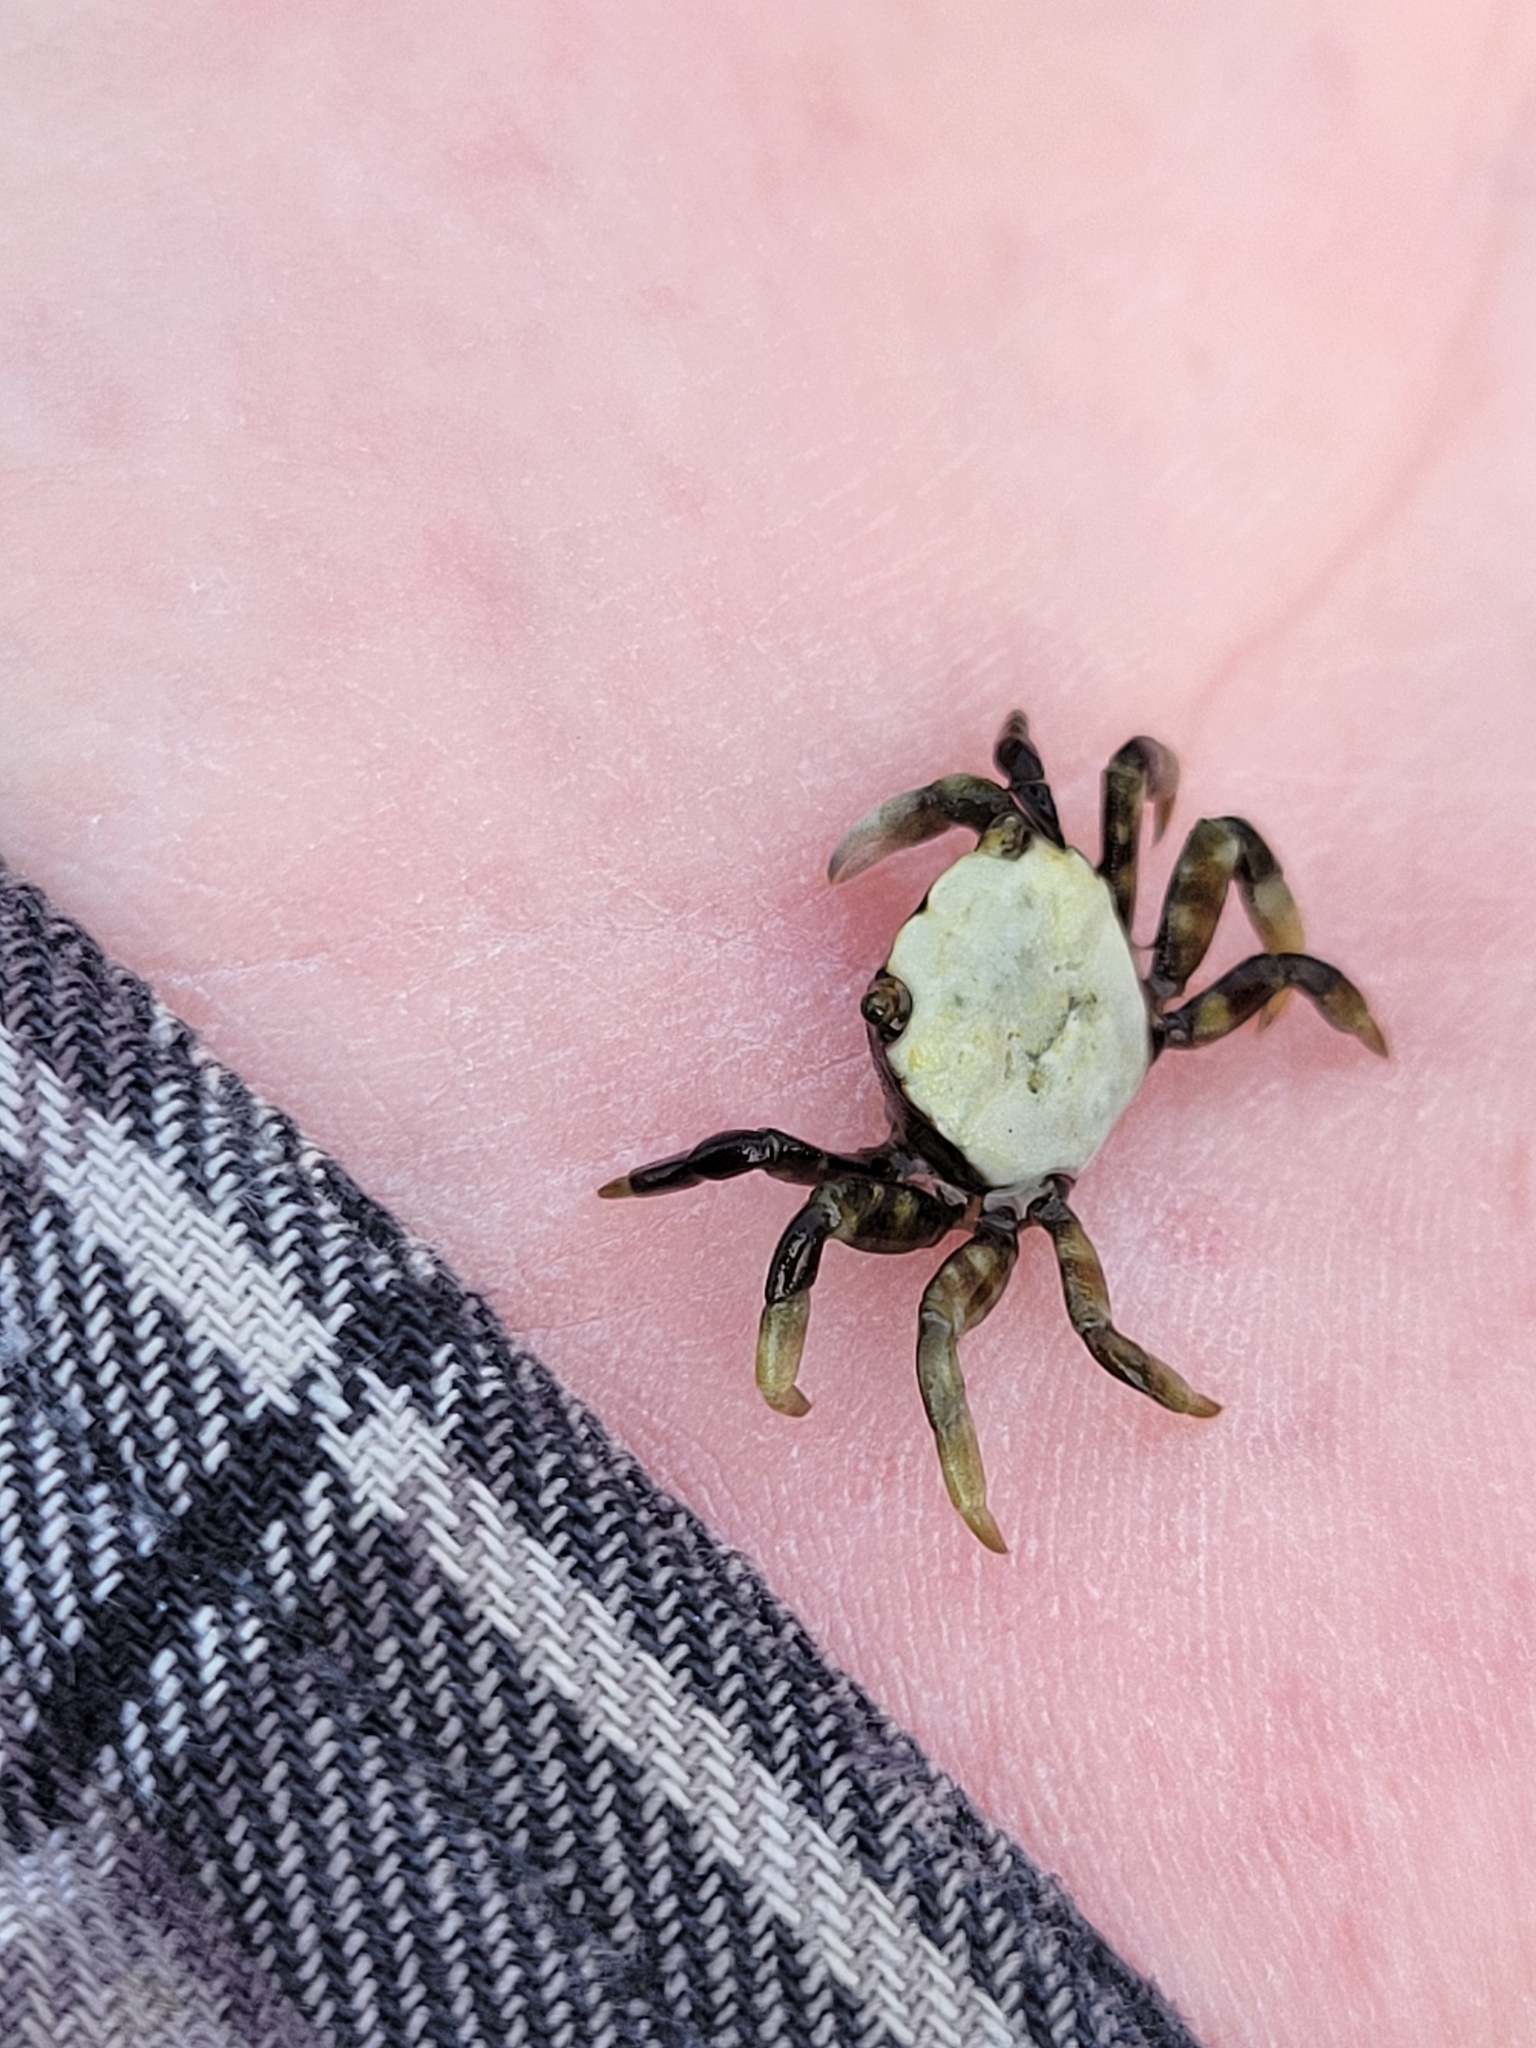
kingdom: Animalia
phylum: Arthropoda
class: Malacostraca
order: Decapoda
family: Varunidae
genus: Hemigrapsus
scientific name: Hemigrapsus oregonensis
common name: Yellow shore crab
